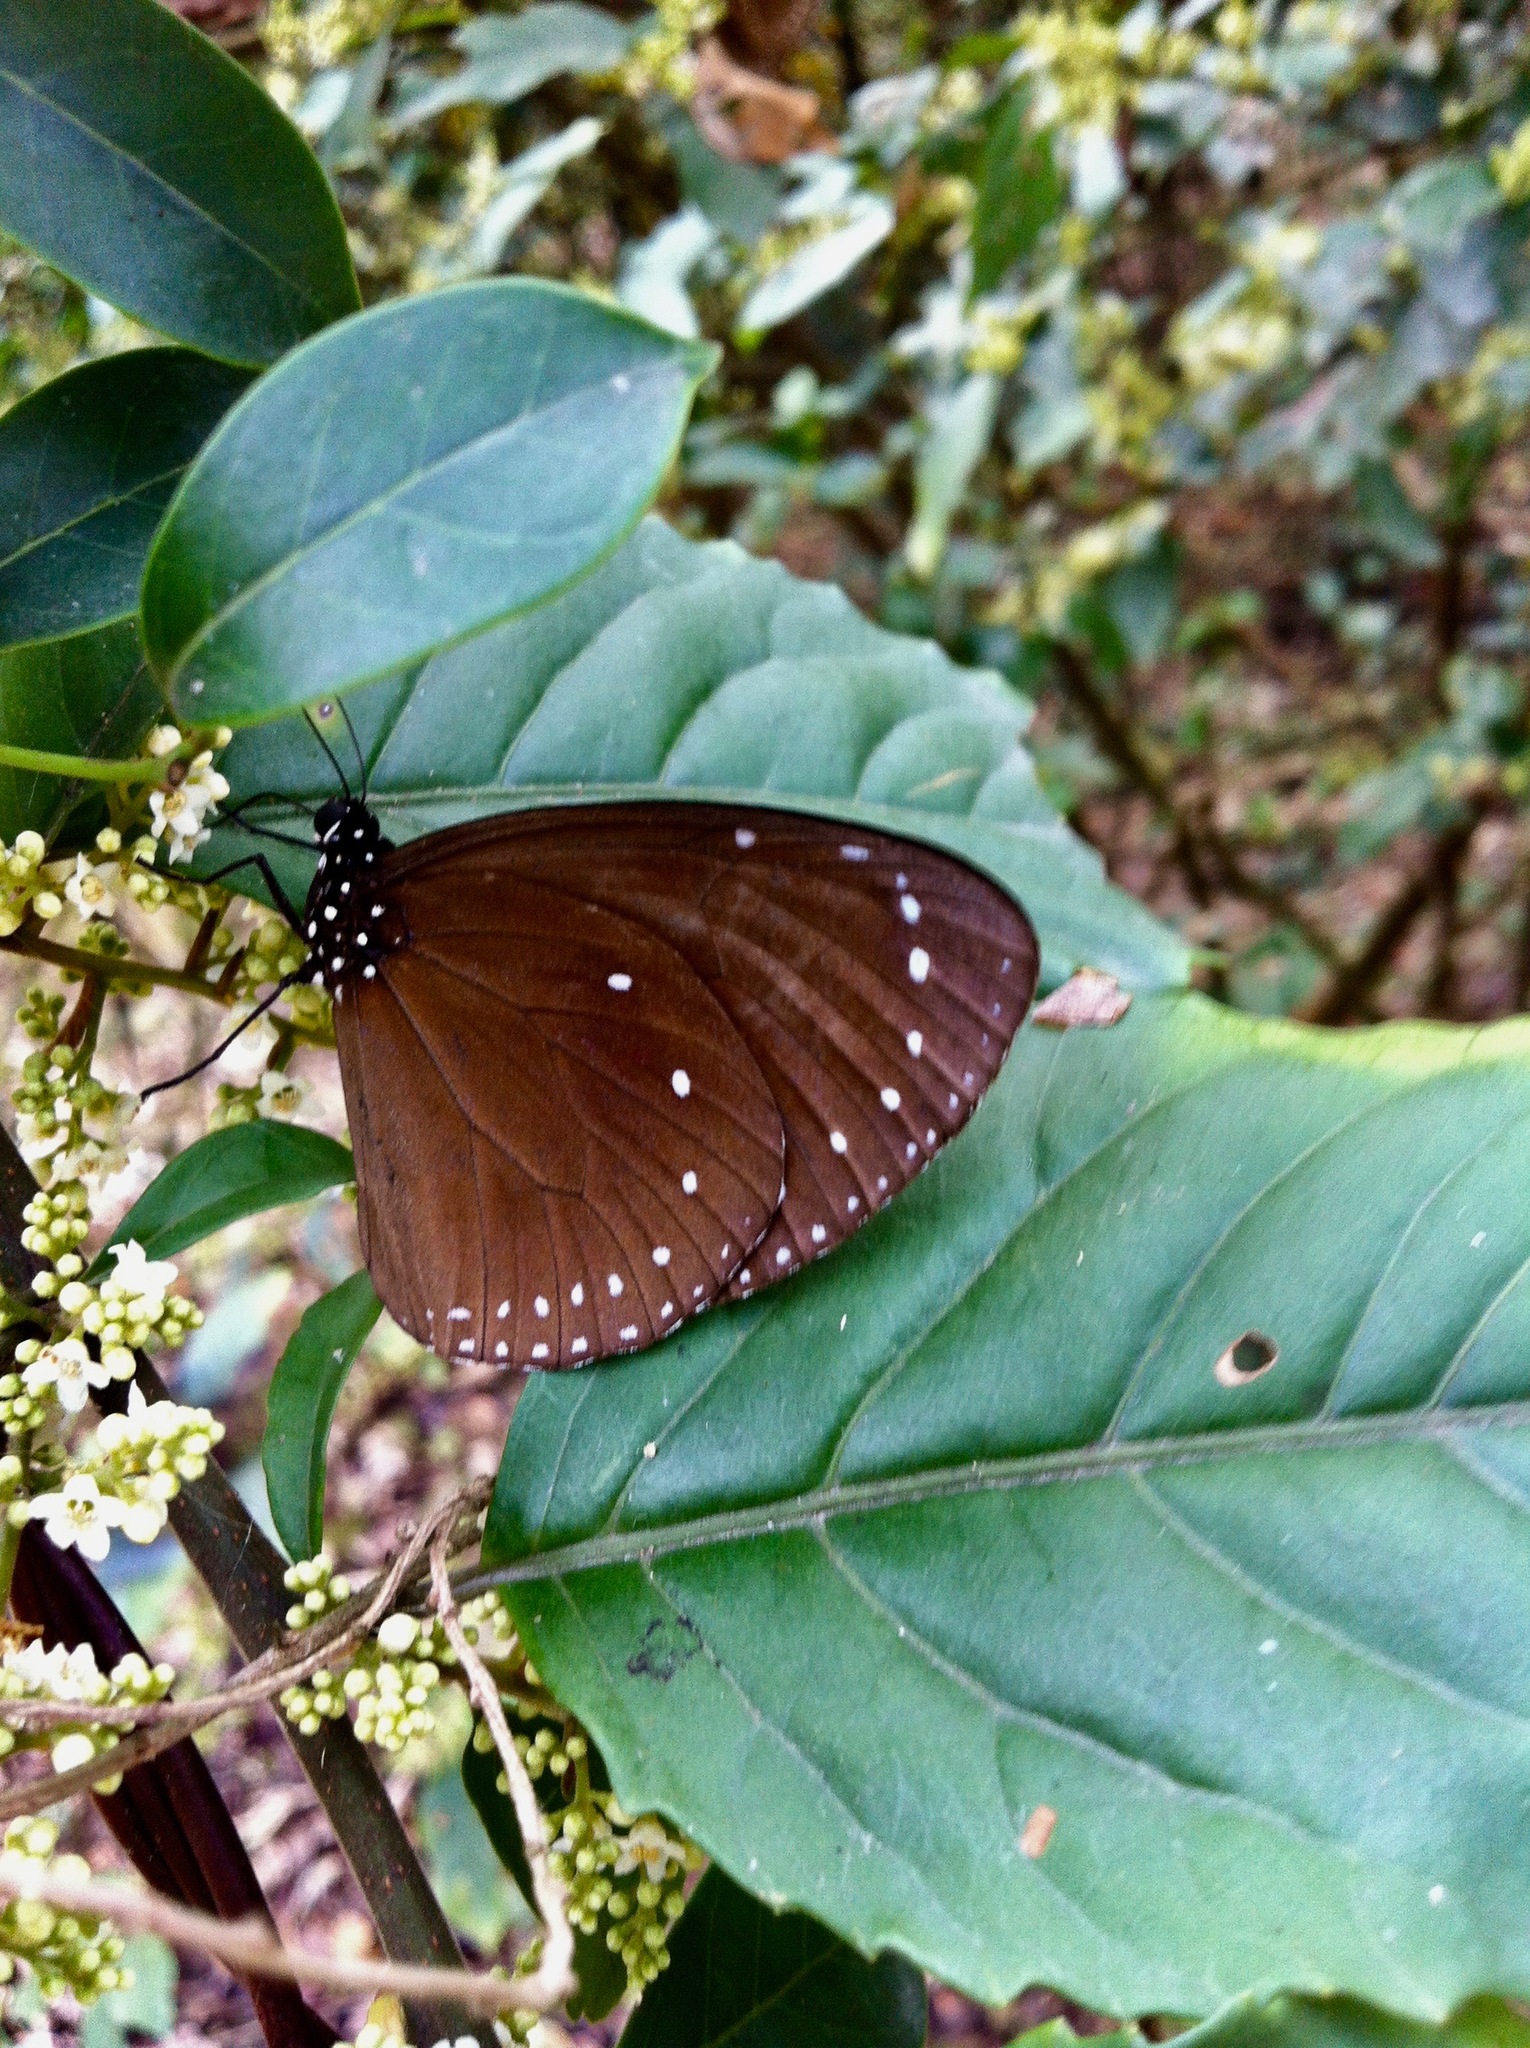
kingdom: Animalia
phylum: Arthropoda
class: Insecta
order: Lepidoptera
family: Nymphalidae
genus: Euploea
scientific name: Euploea tulliolus
